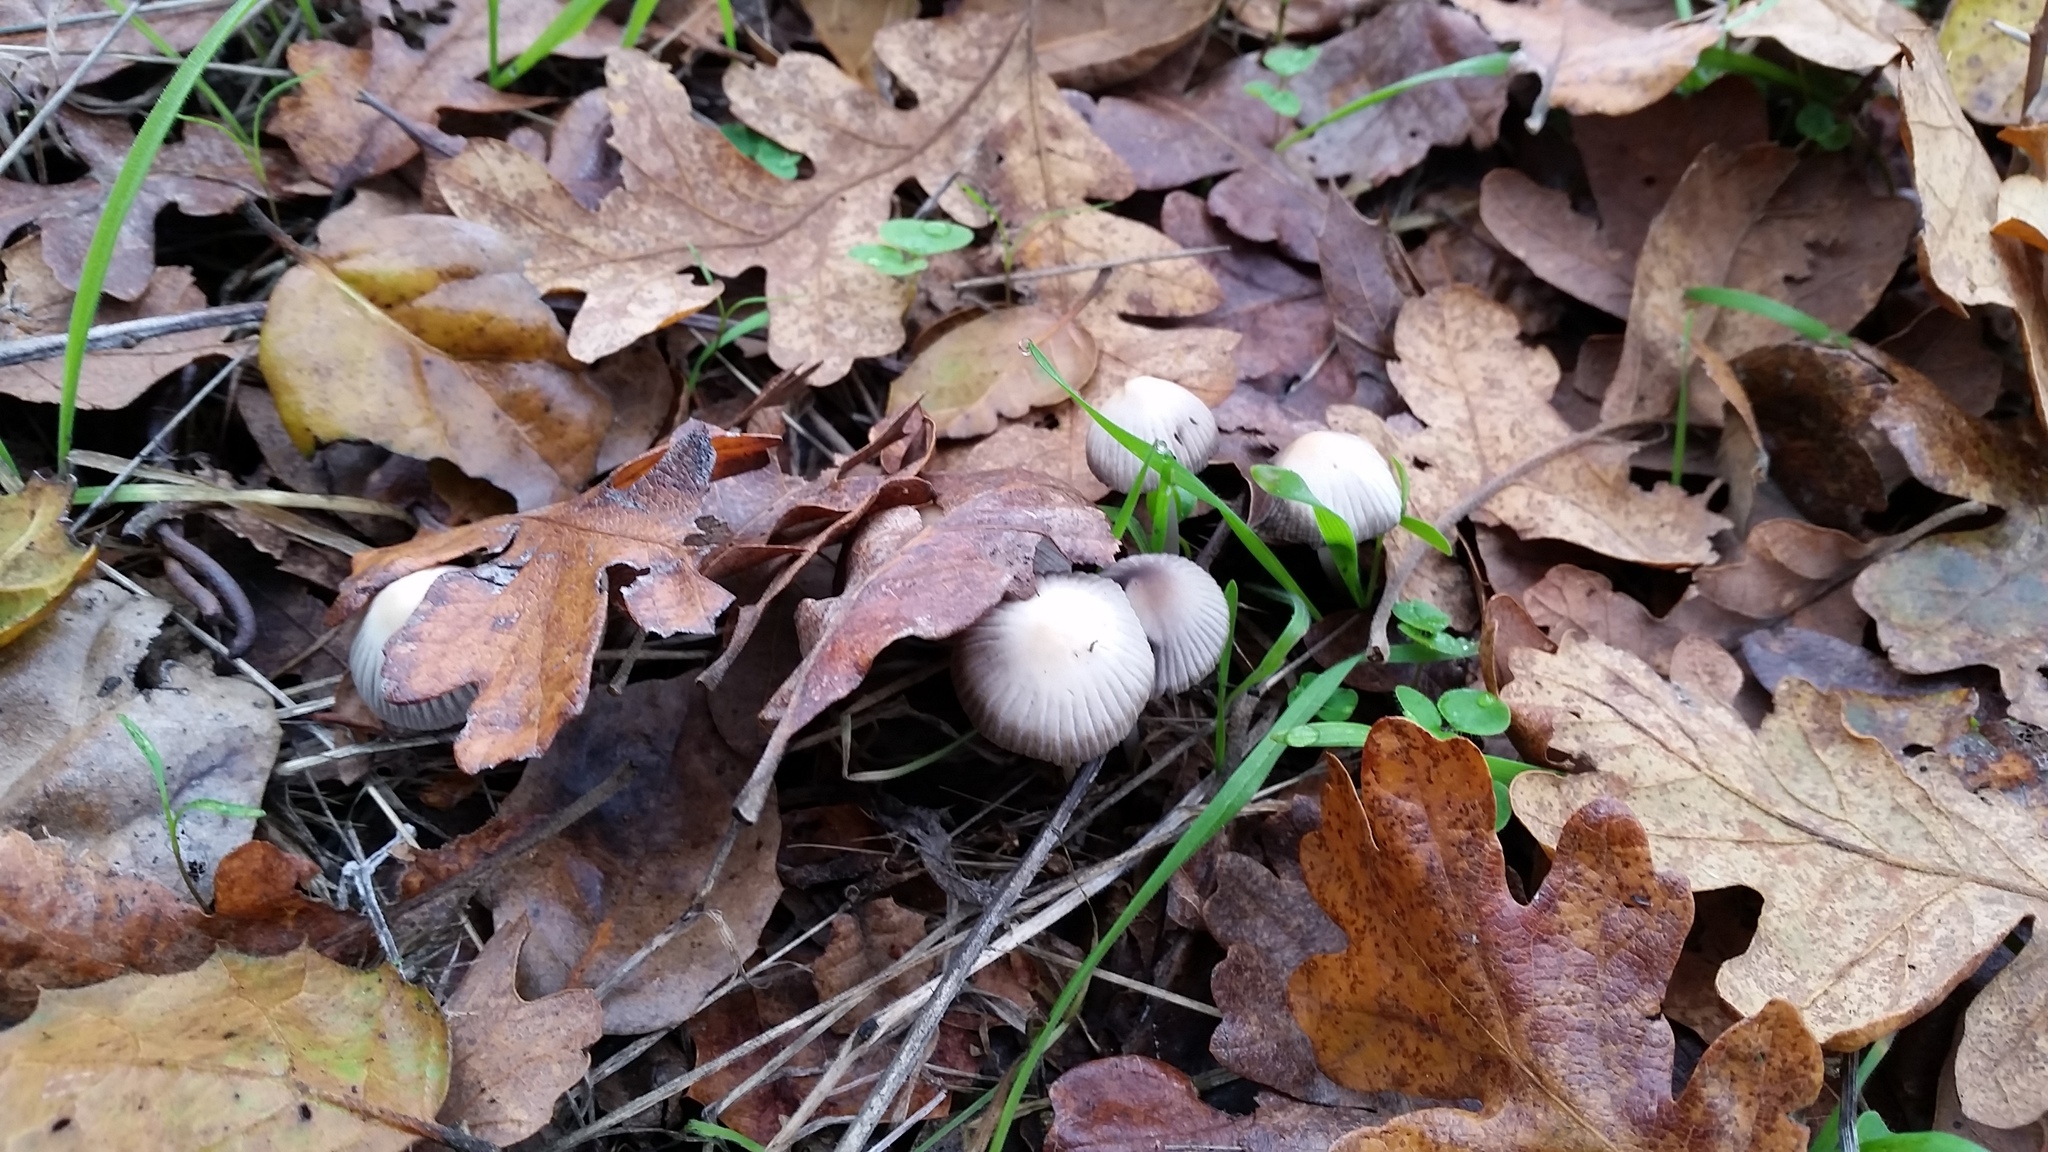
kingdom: Fungi
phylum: Basidiomycota
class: Agaricomycetes
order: Agaricales
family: Psathyrellaceae
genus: Tulosesus
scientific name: Tulosesus impatiens
